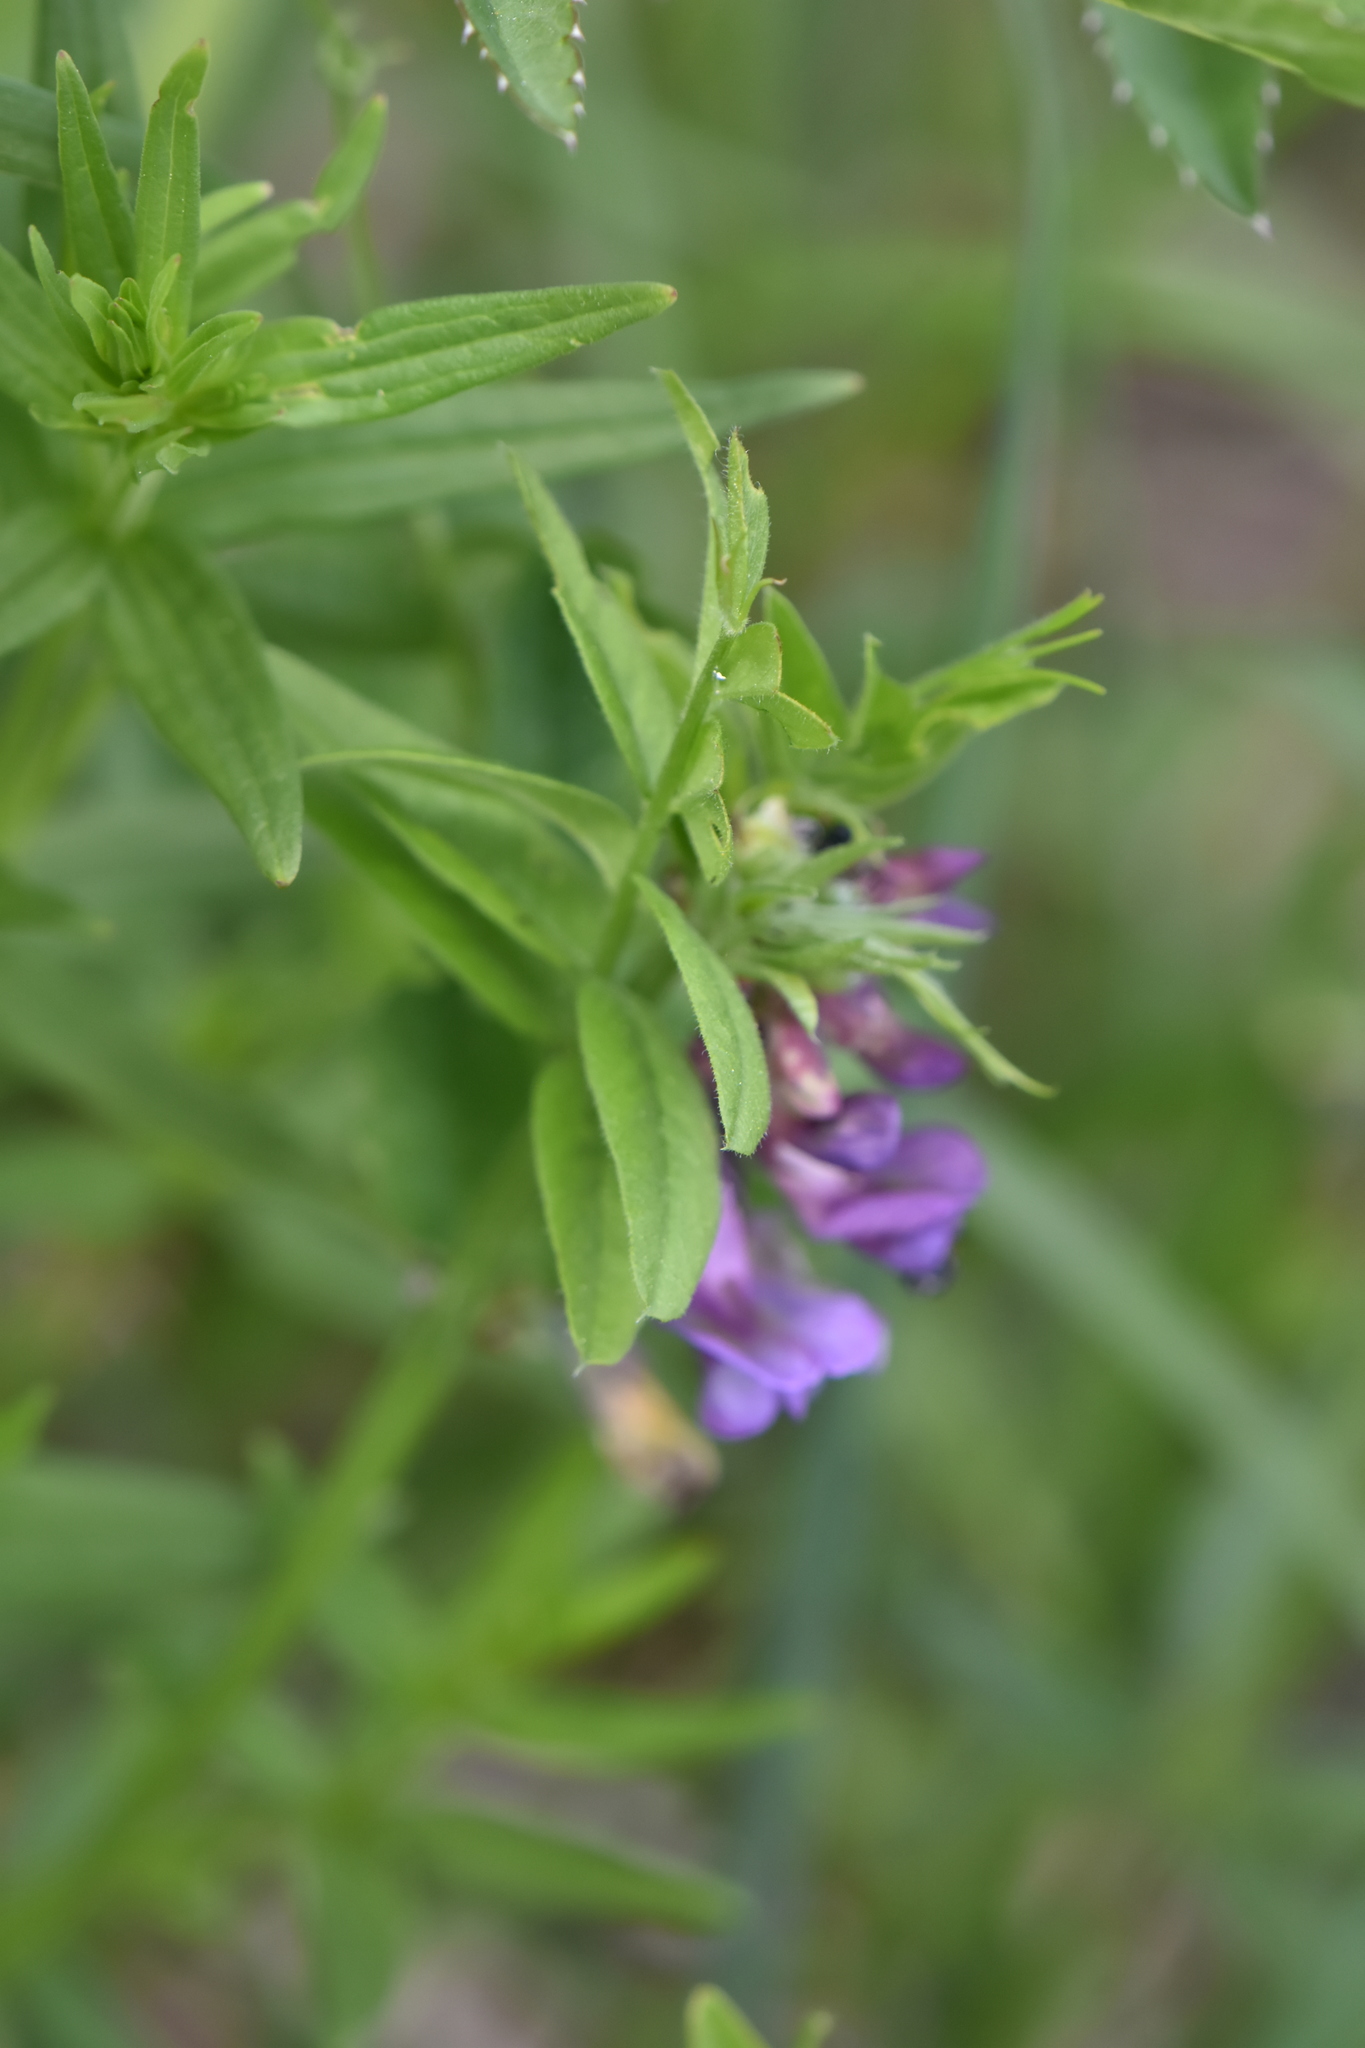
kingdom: Plantae
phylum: Tracheophyta
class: Magnoliopsida
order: Fabales
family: Fabaceae
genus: Vicia
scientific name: Vicia sepium
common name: Bush vetch
